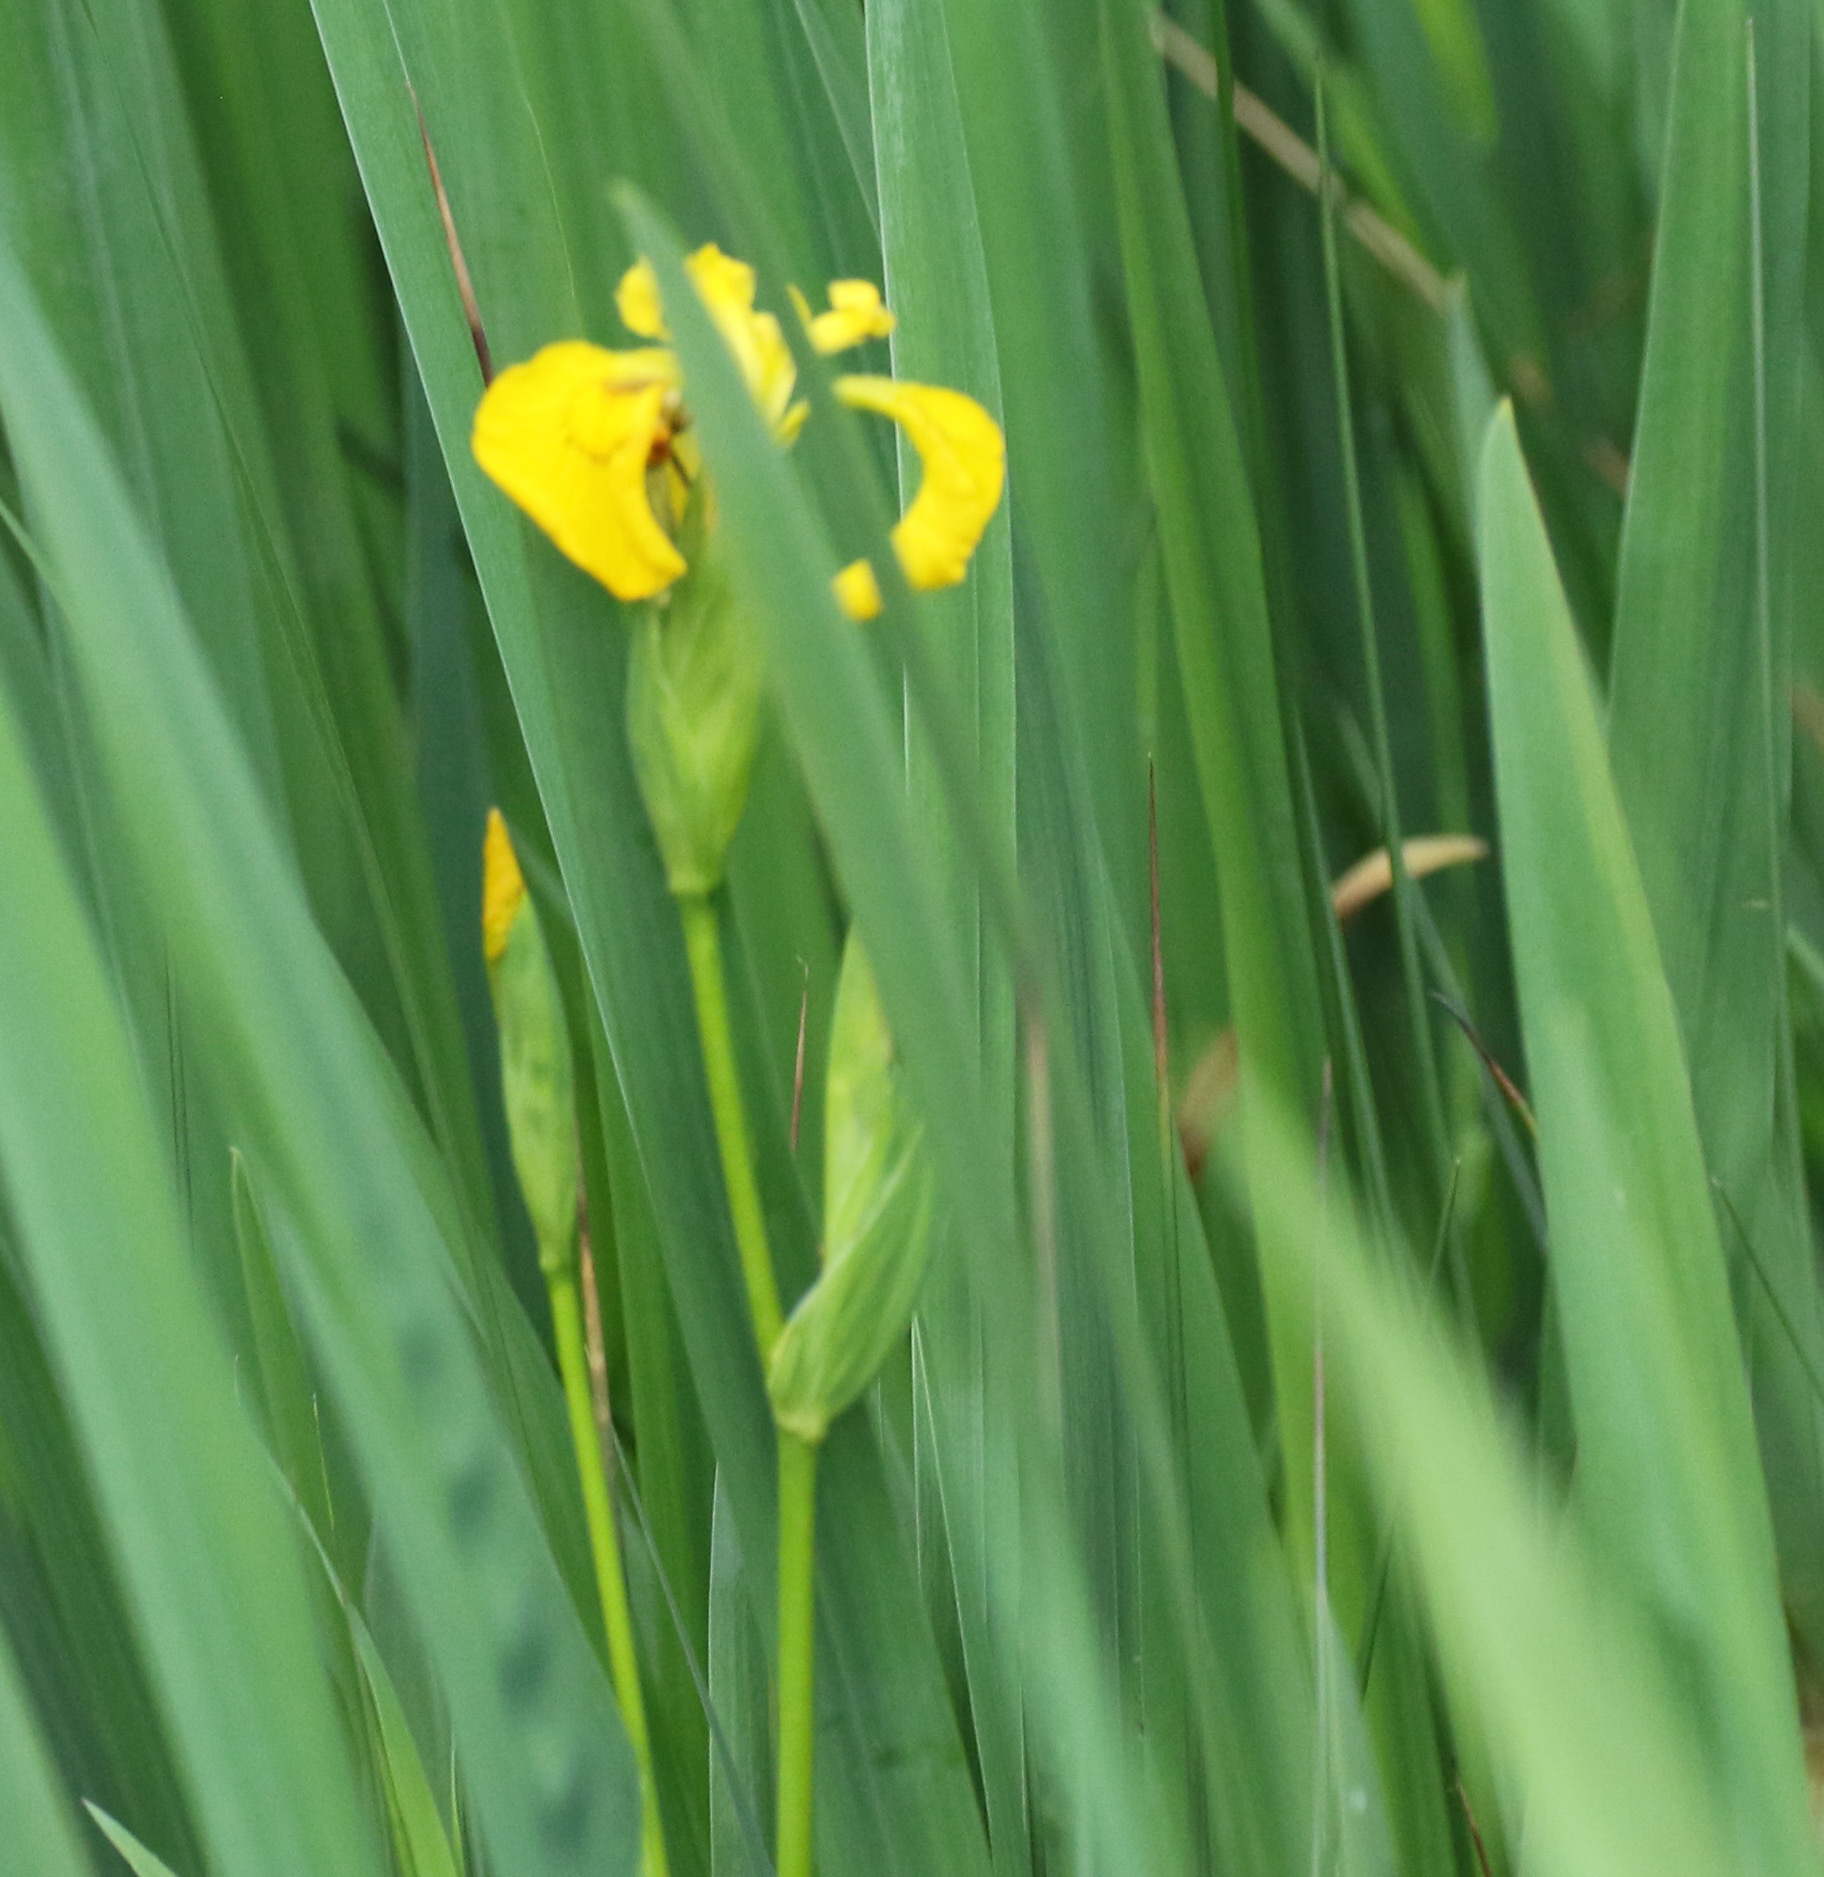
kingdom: Plantae
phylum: Tracheophyta
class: Liliopsida
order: Asparagales
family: Iridaceae
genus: Iris
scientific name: Iris pseudacorus
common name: Yellow flag
